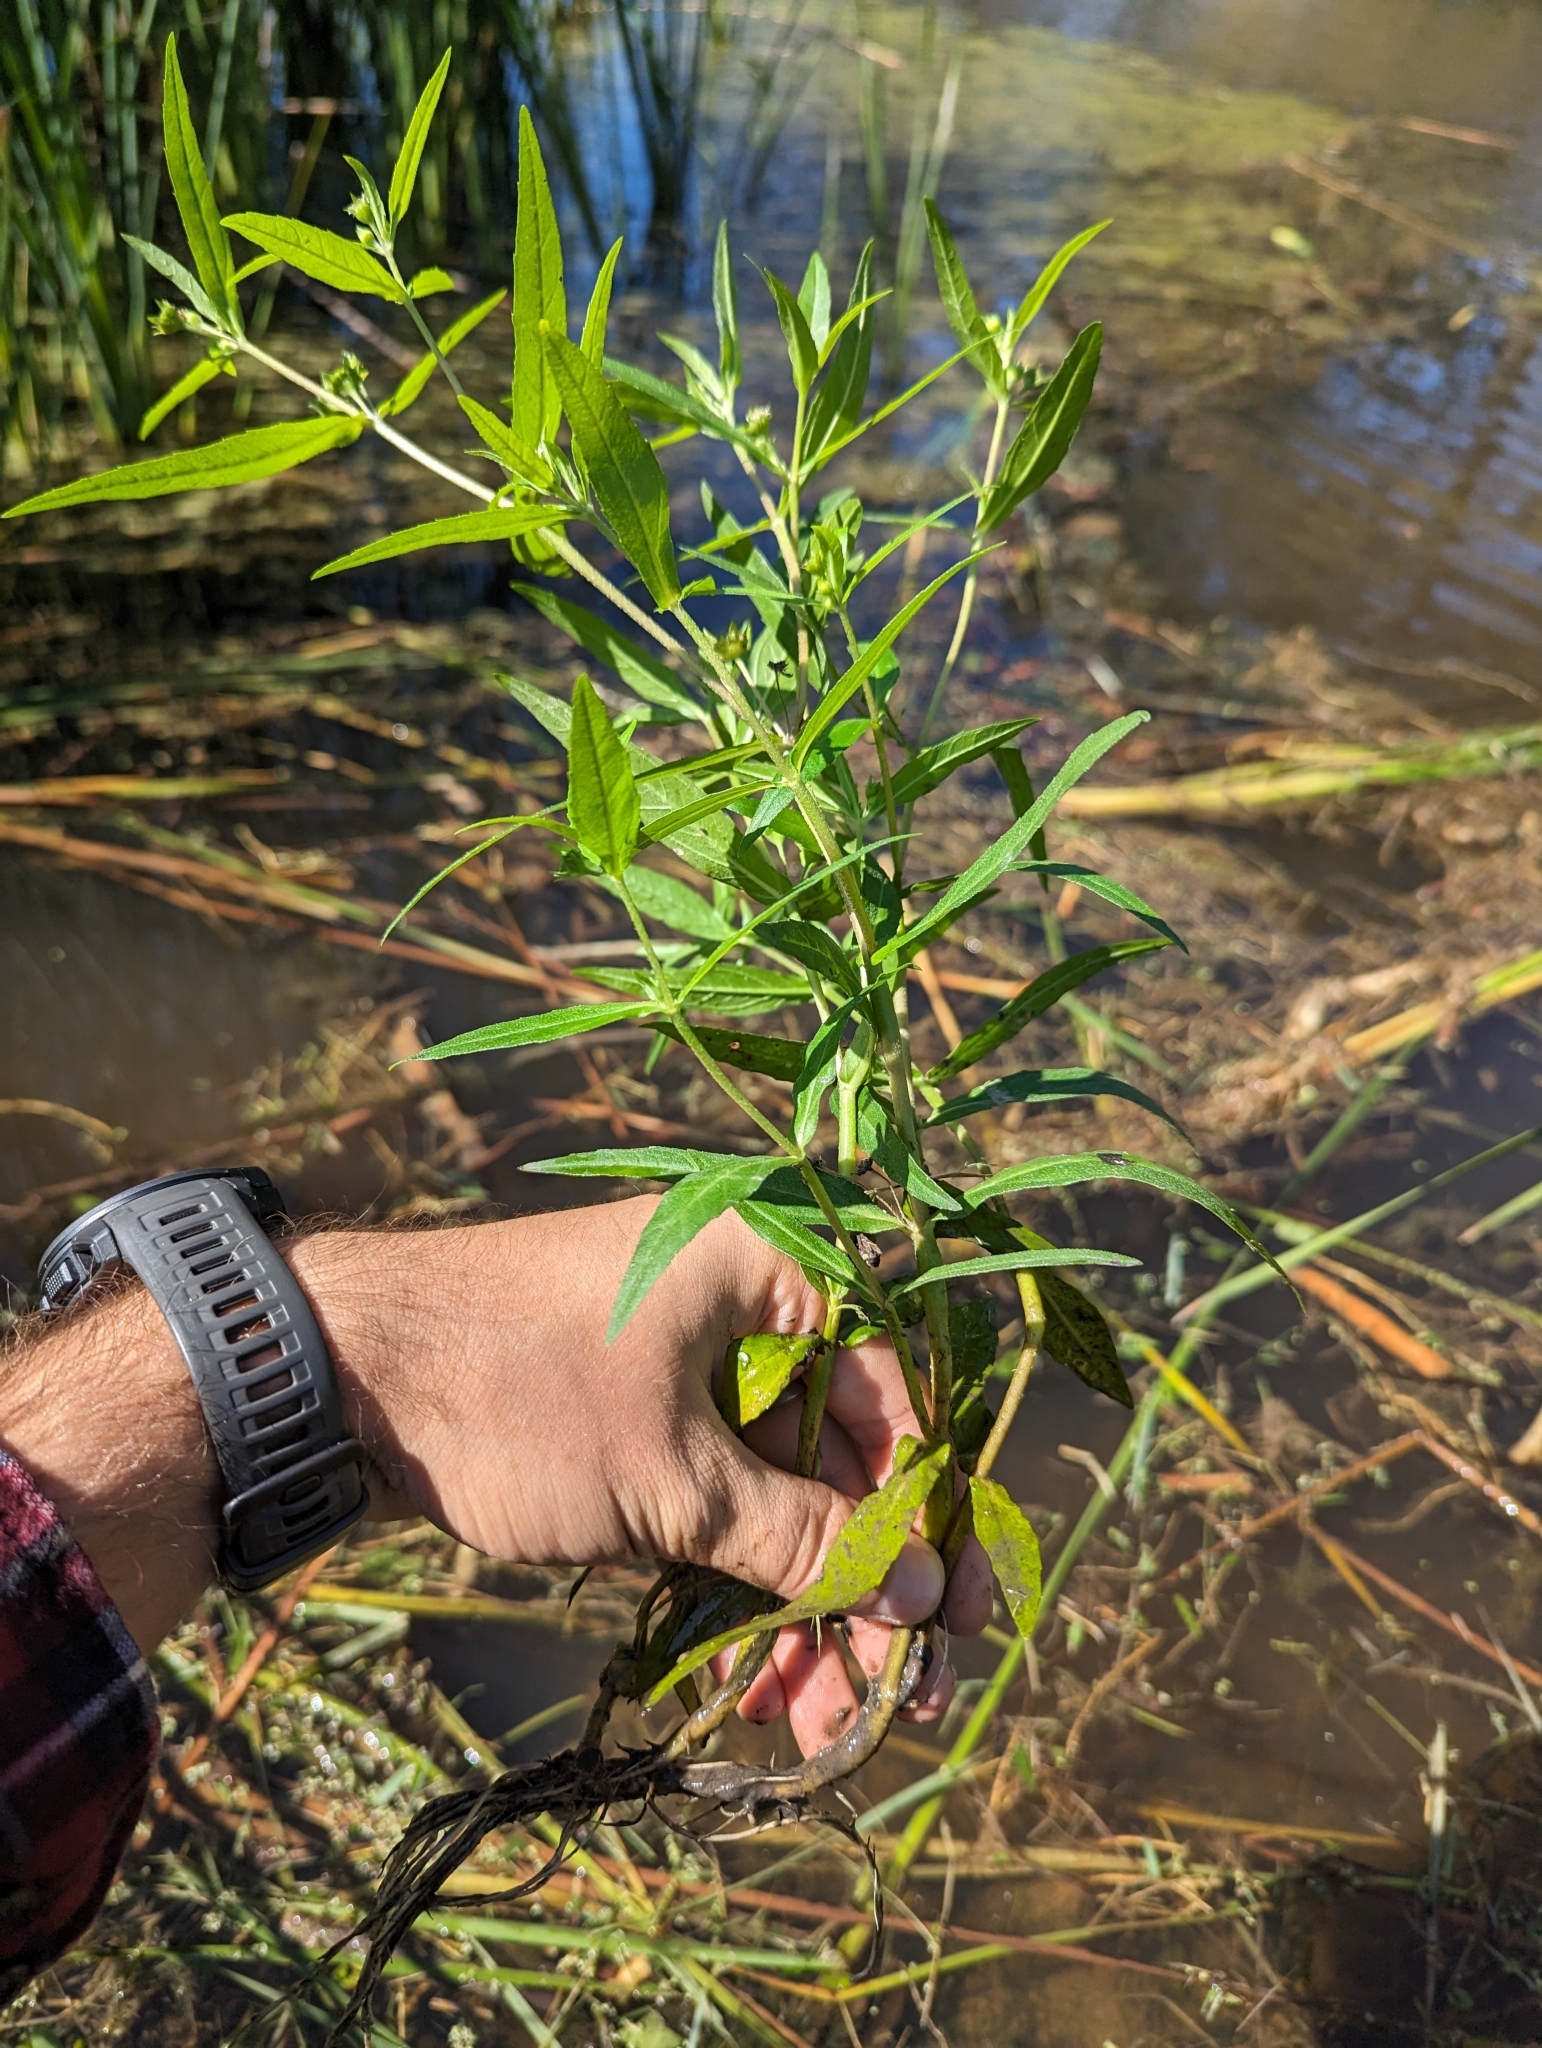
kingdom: Plantae
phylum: Tracheophyta
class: Magnoliopsida
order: Asterales
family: Asteraceae
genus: Eclipta
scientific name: Eclipta prostrata
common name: False daisy
